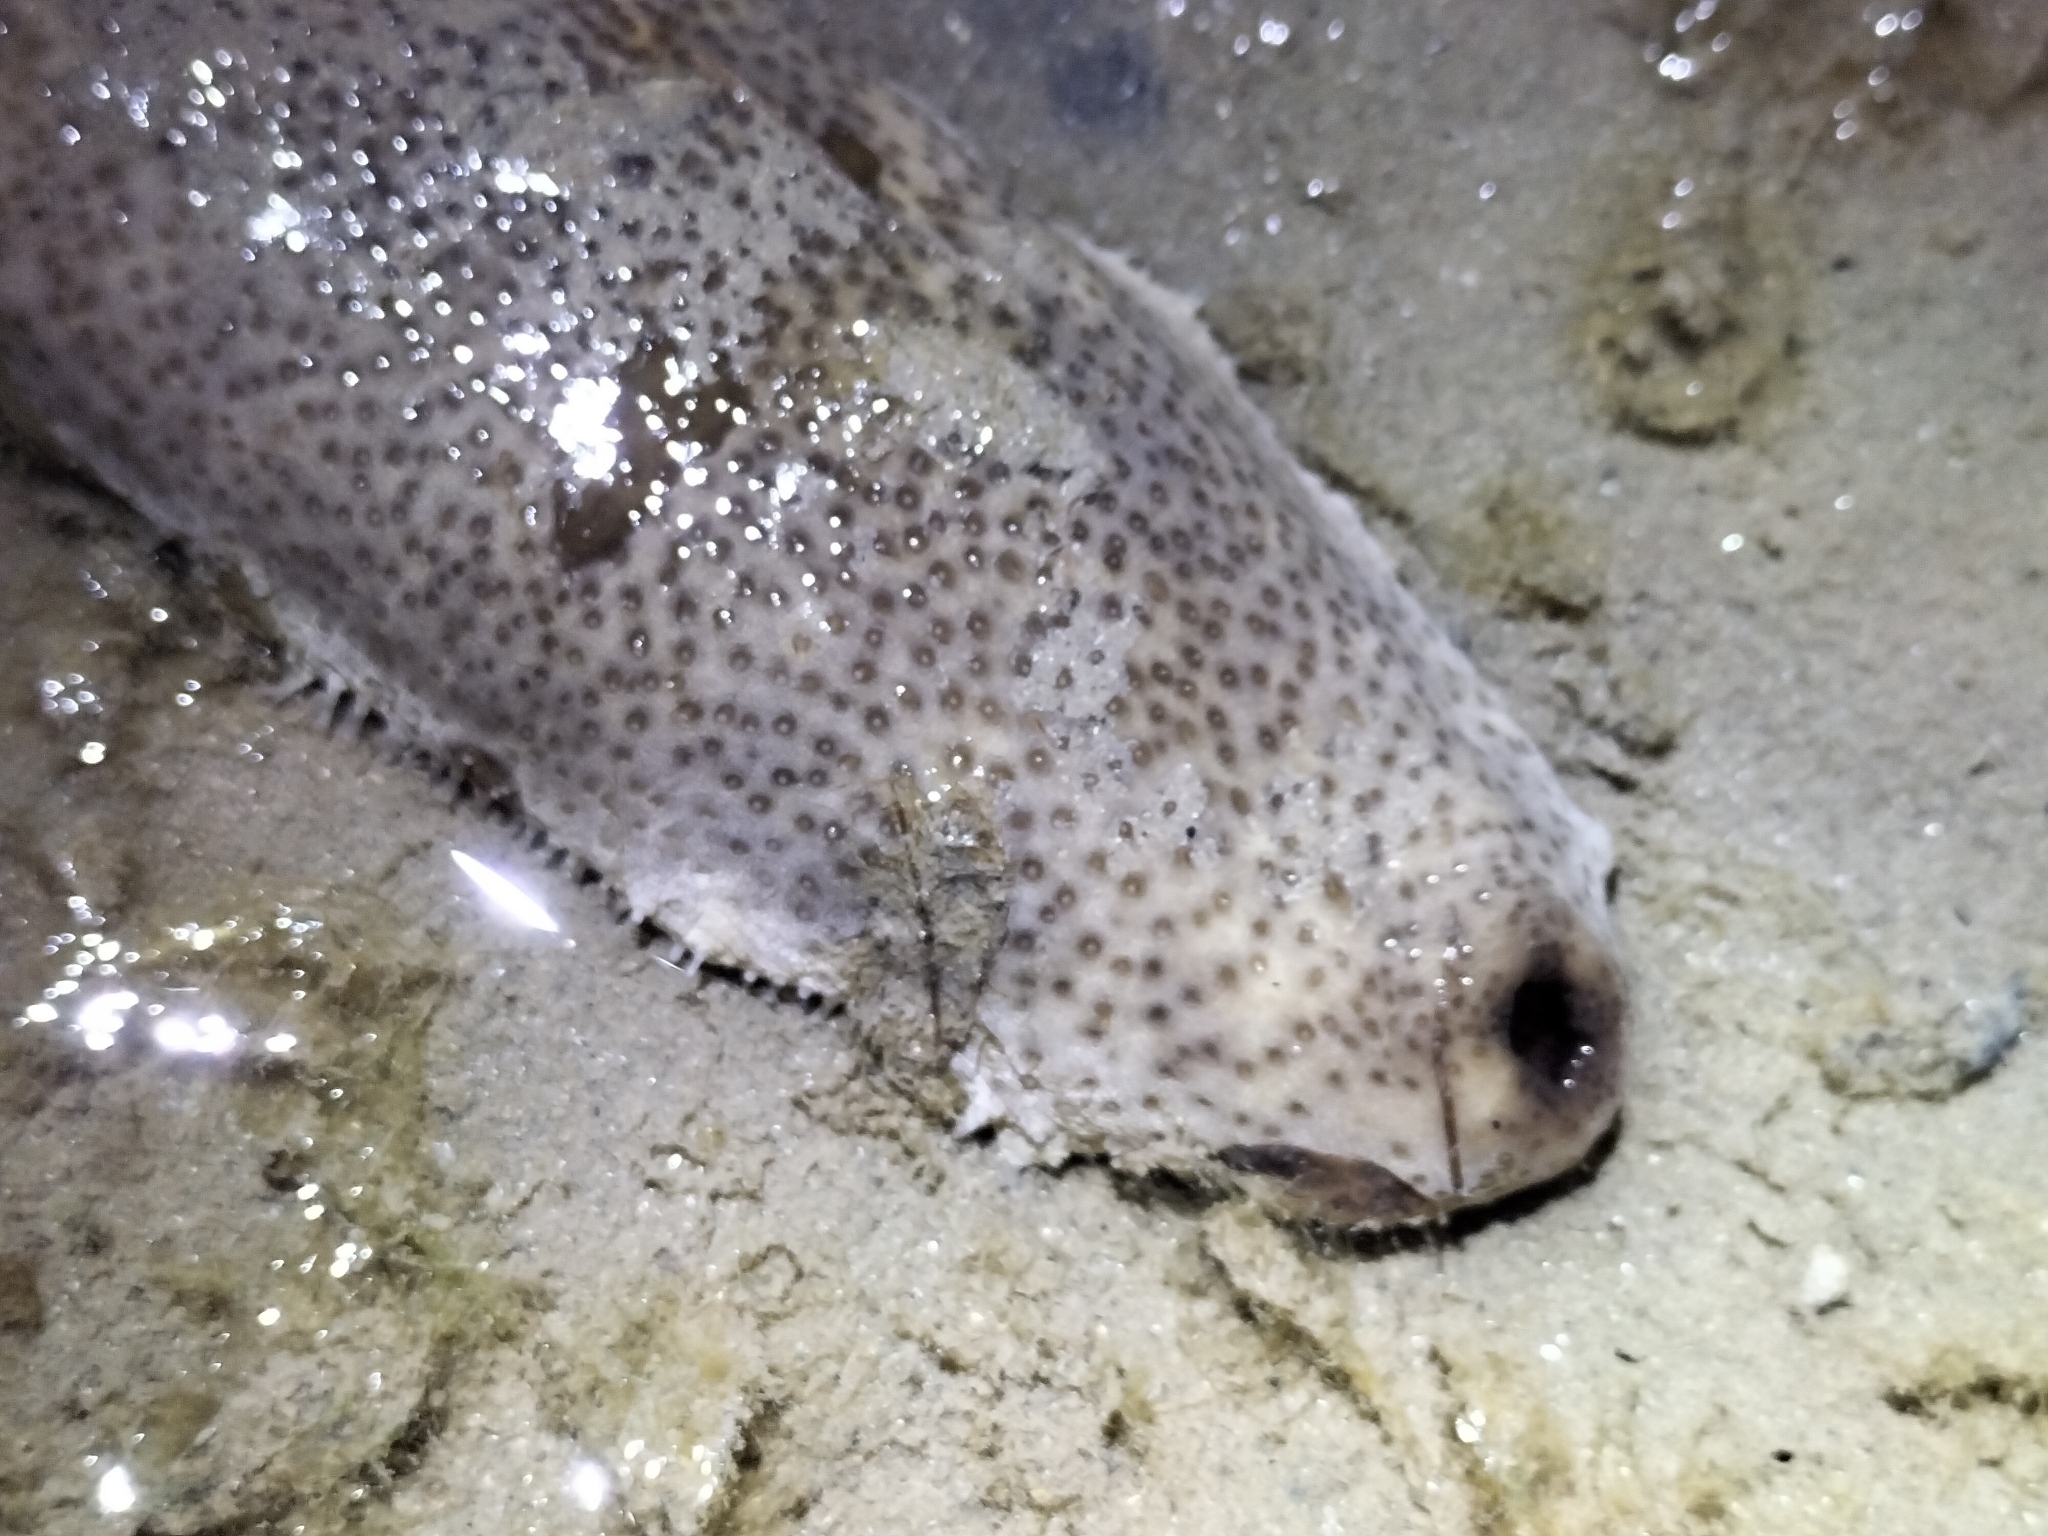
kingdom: Animalia
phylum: Echinodermata
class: Holothuroidea
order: Holothuriida
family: Holothuriidae
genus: Bohadschia
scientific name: Bohadschia marmorata
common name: Brown sandfish
